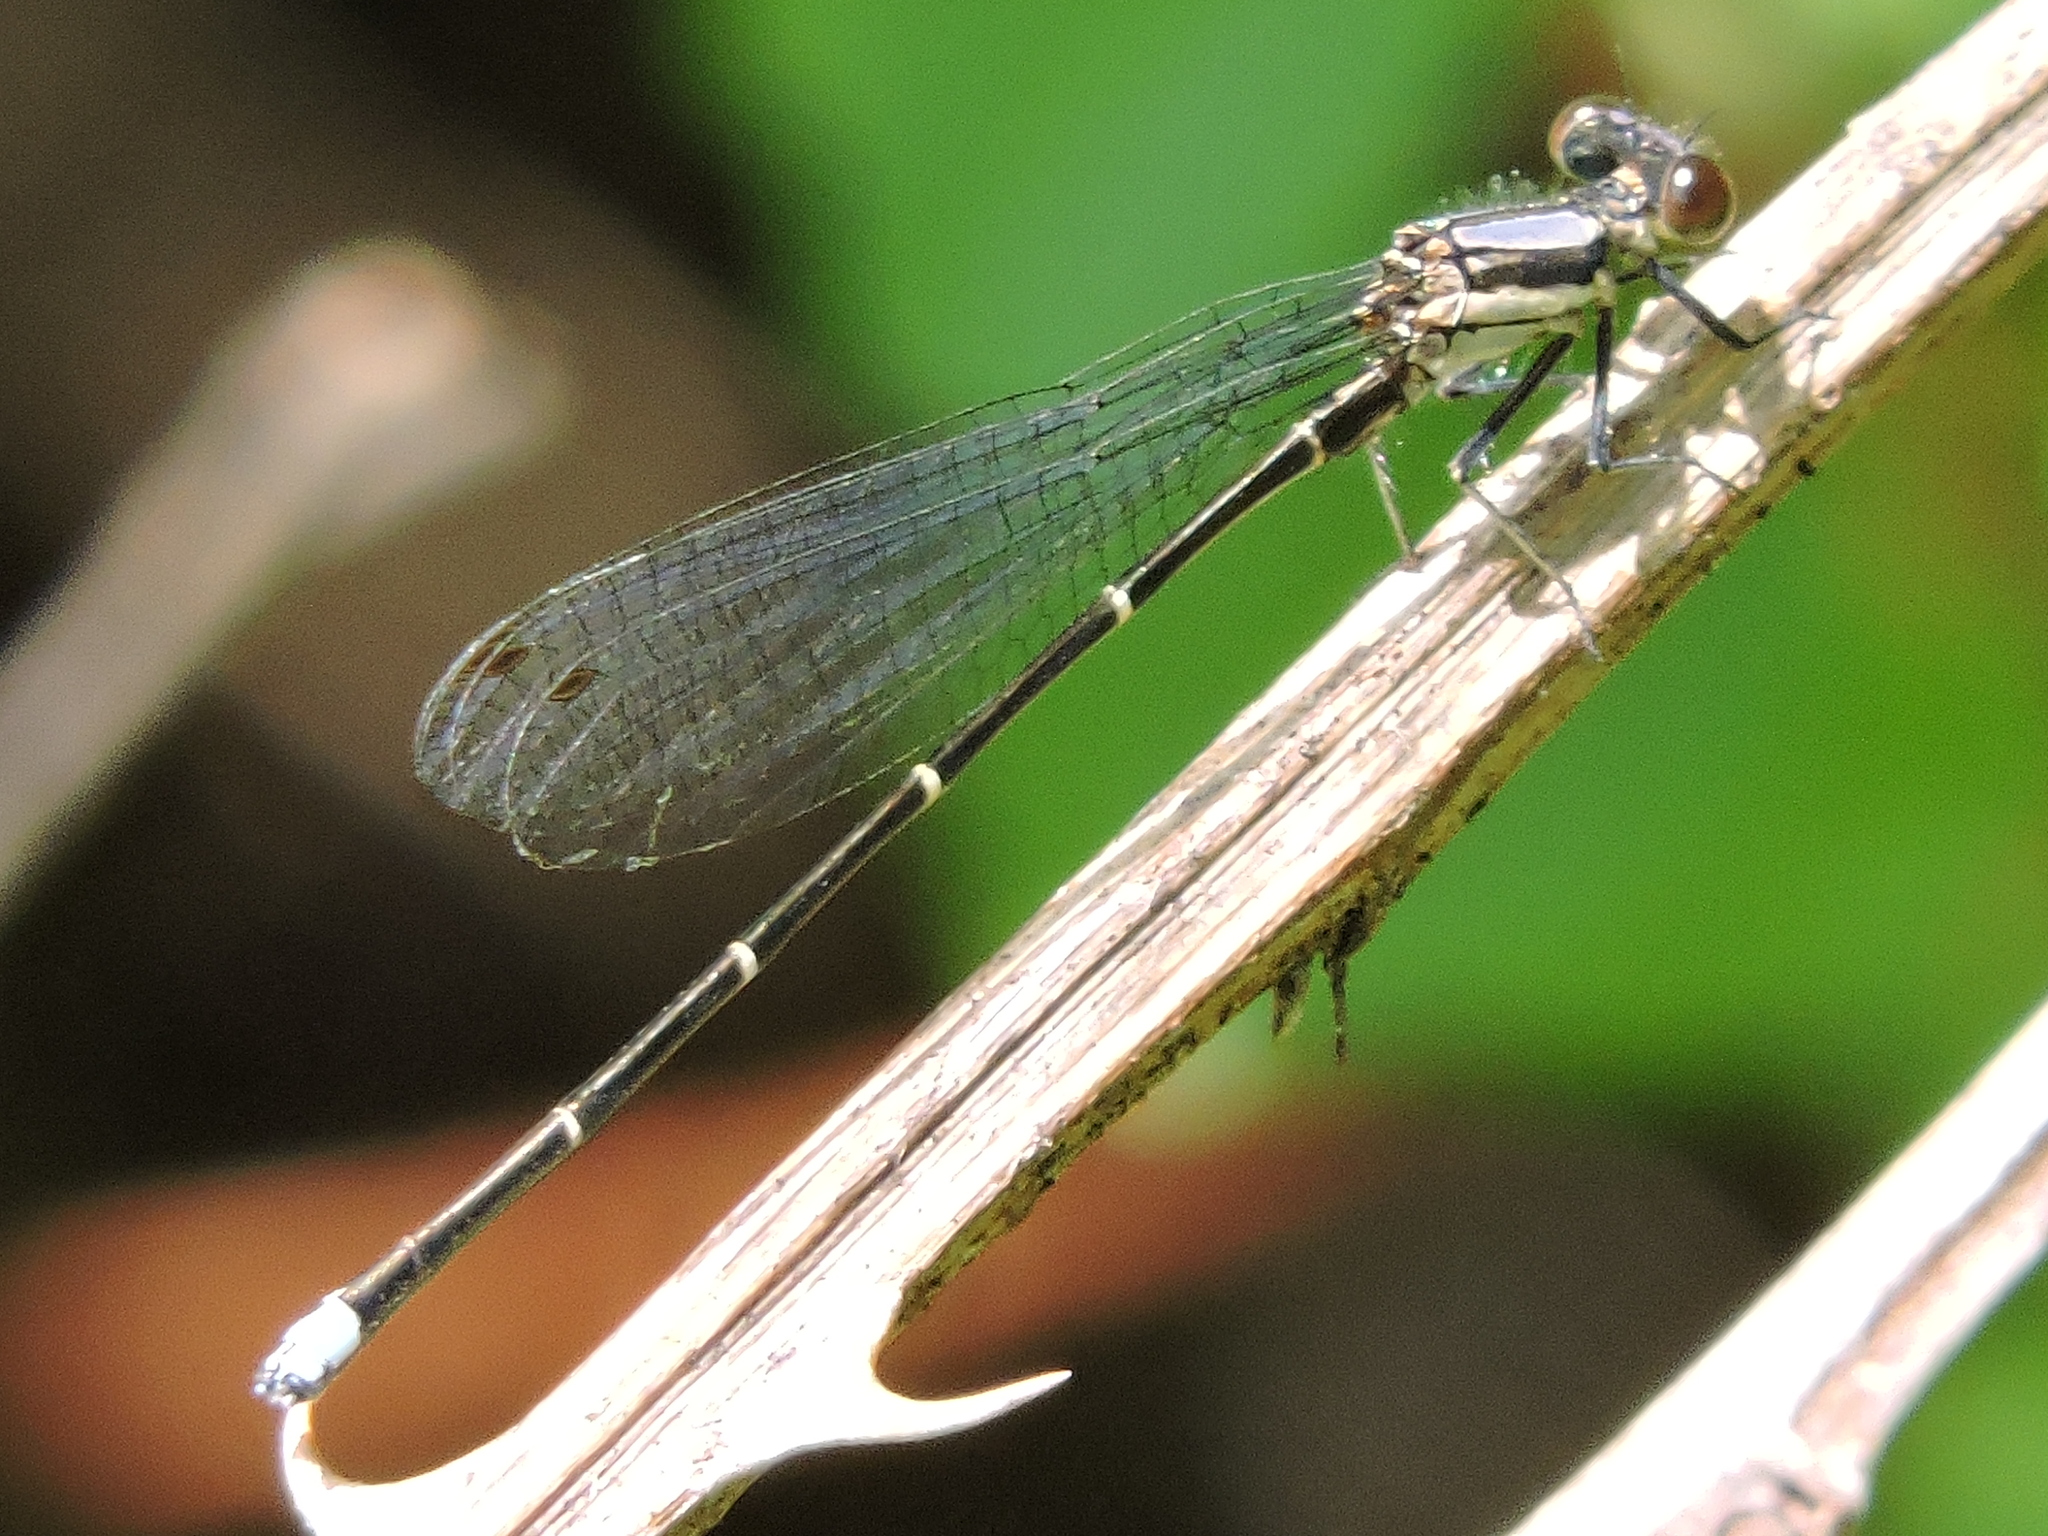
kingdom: Animalia
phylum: Arthropoda
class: Insecta
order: Odonata
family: Coenagrionidae
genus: Argia
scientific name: Argia tibialis
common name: Blue-tipped dancer
